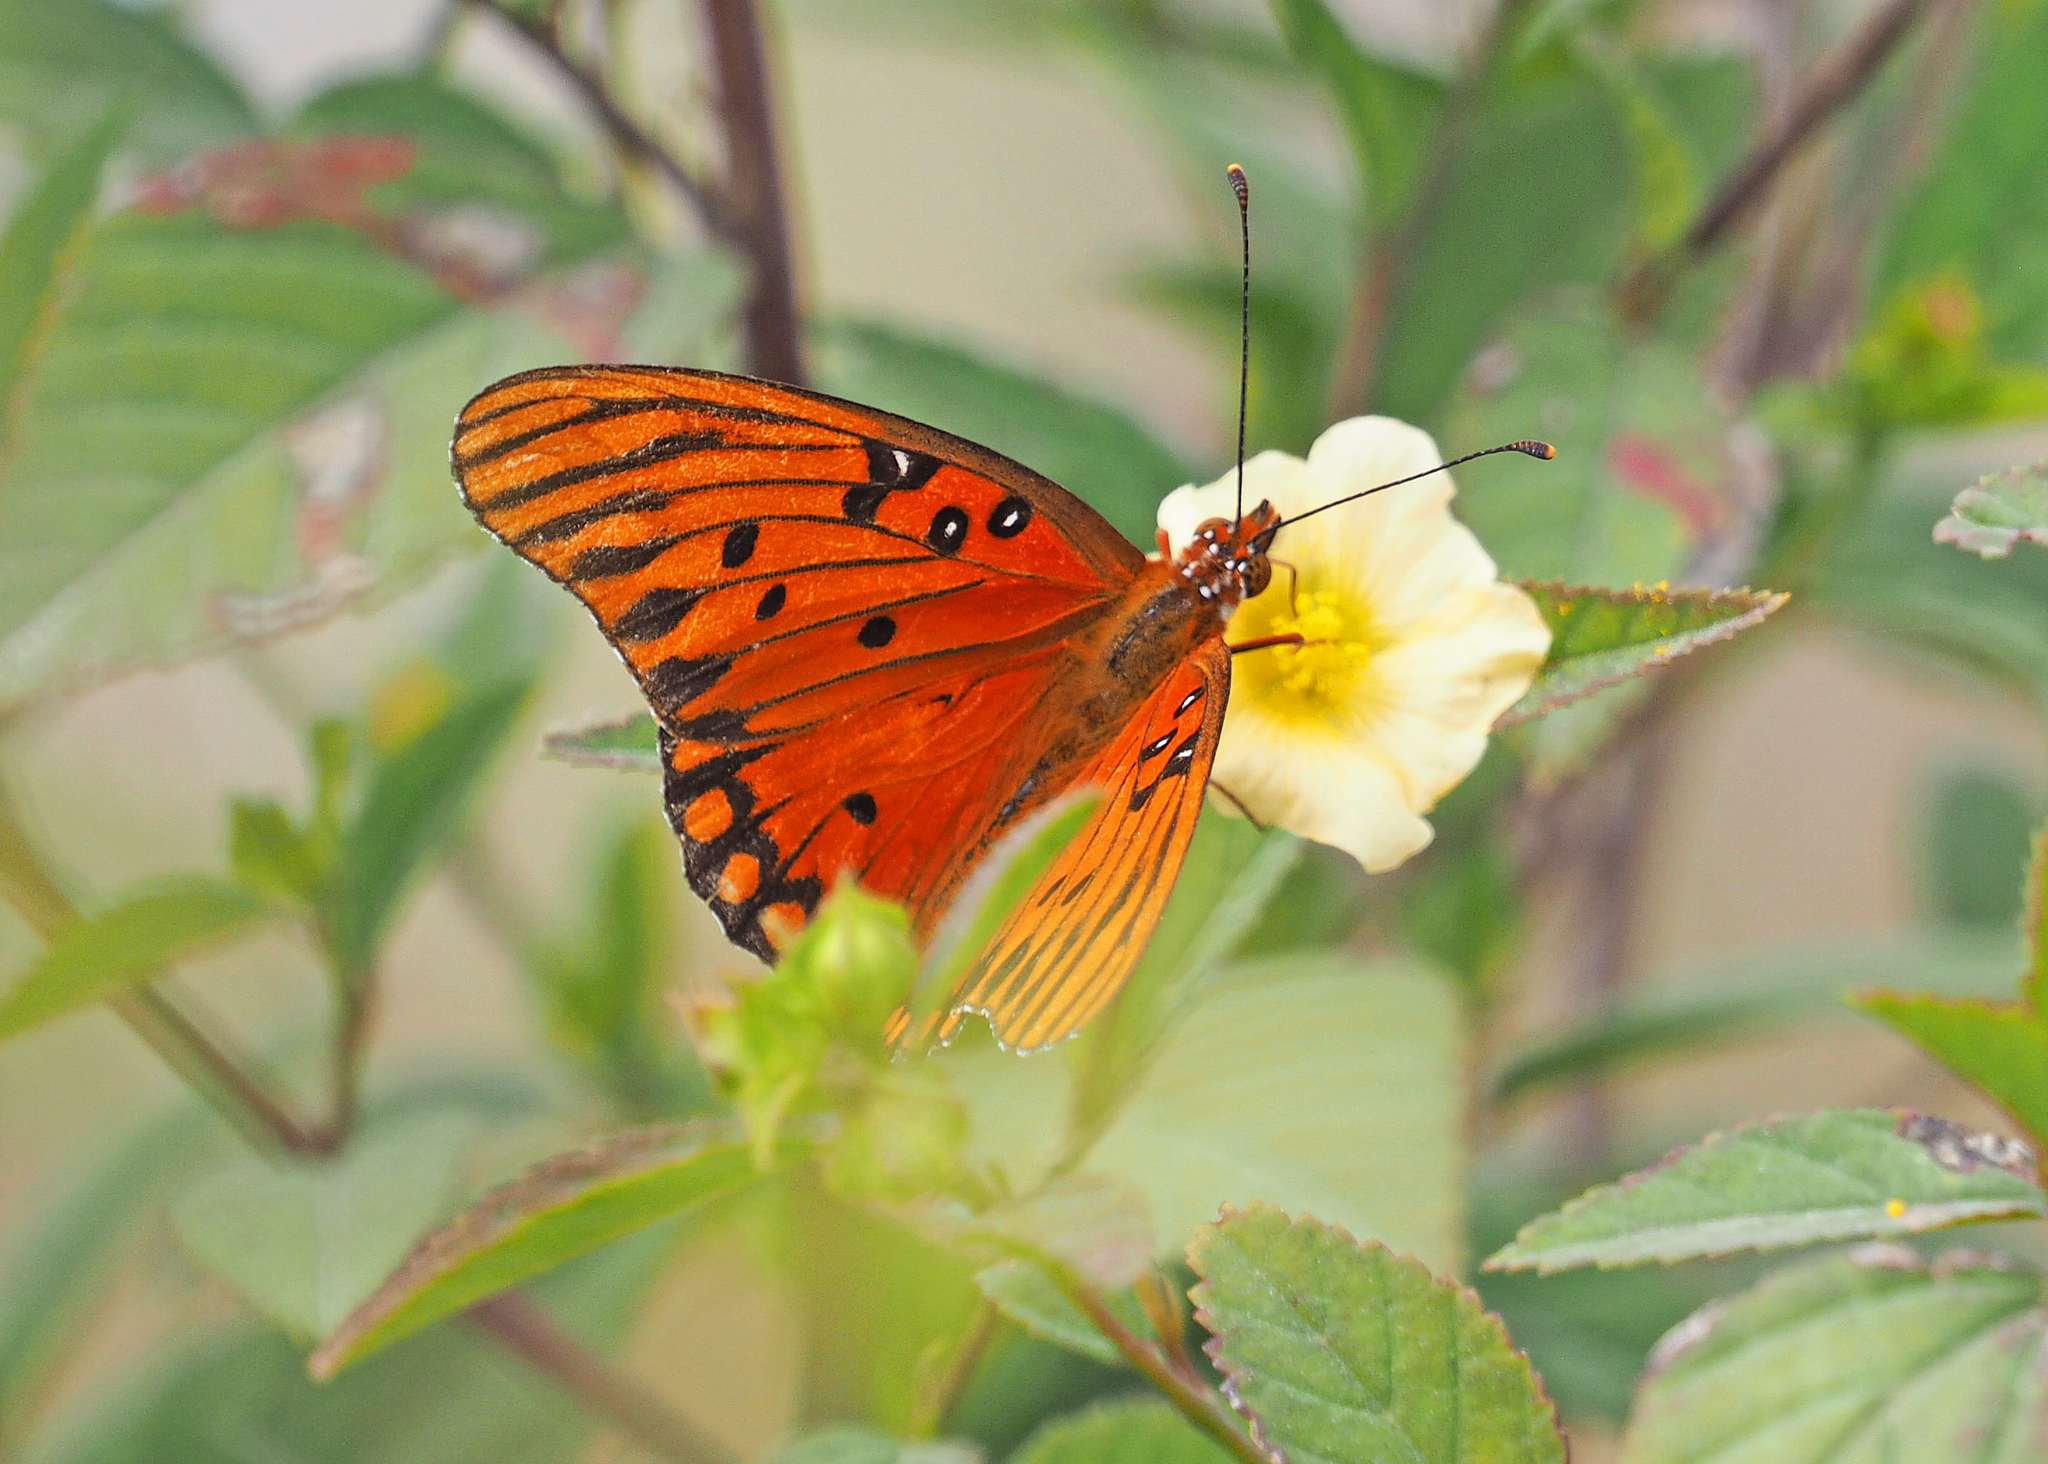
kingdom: Animalia
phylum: Arthropoda
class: Insecta
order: Lepidoptera
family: Nymphalidae
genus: Dione
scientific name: Dione vanillae
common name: Gulf fritillary
